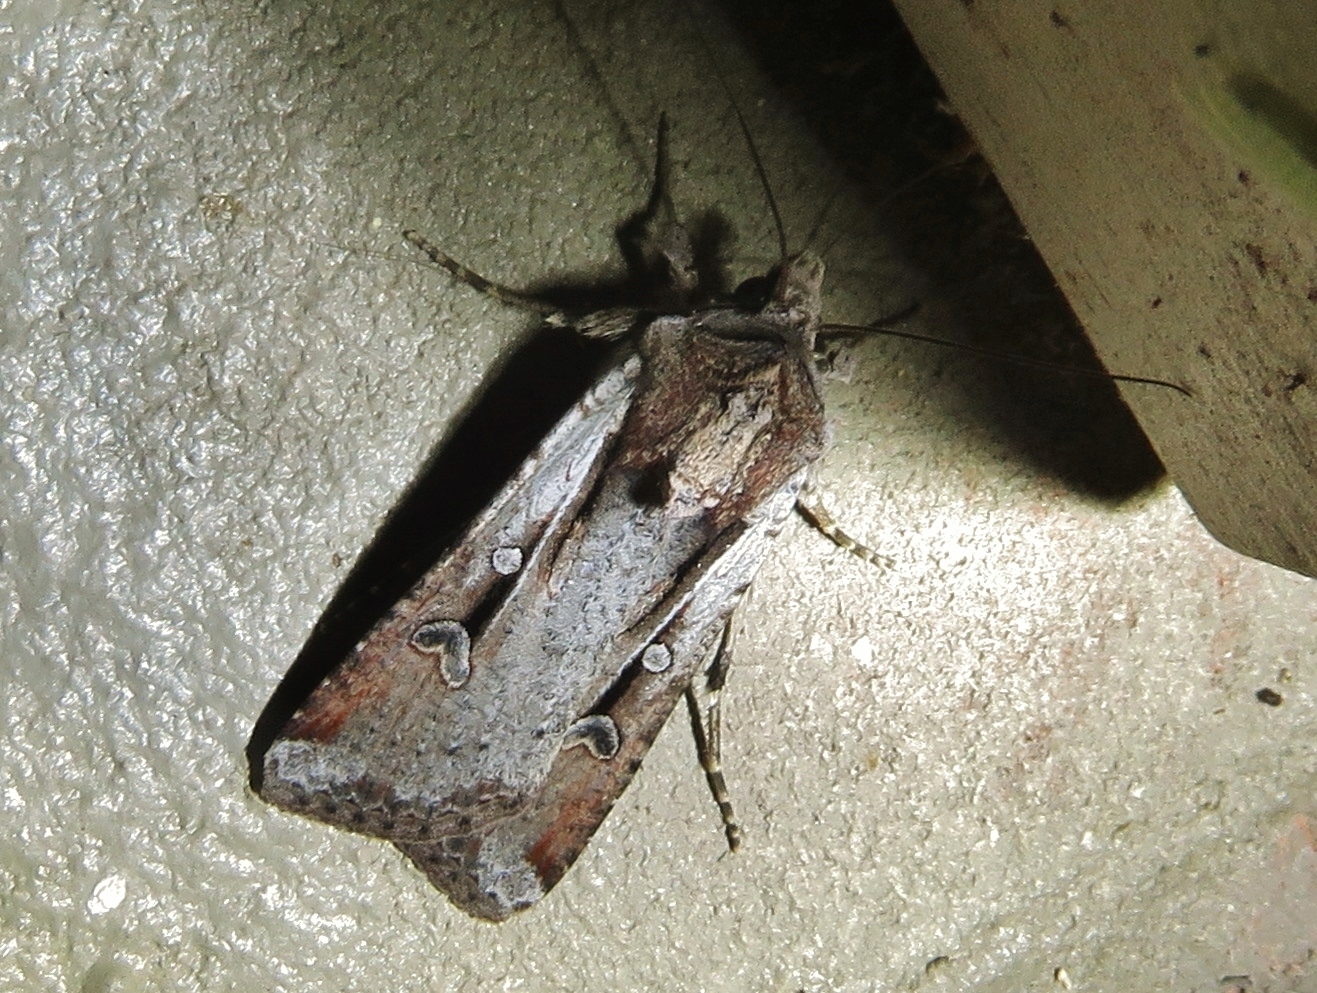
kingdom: Animalia
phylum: Arthropoda
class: Insecta
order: Lepidoptera
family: Noctuidae
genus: Hemieuxoa
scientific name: Hemieuxoa rudens
